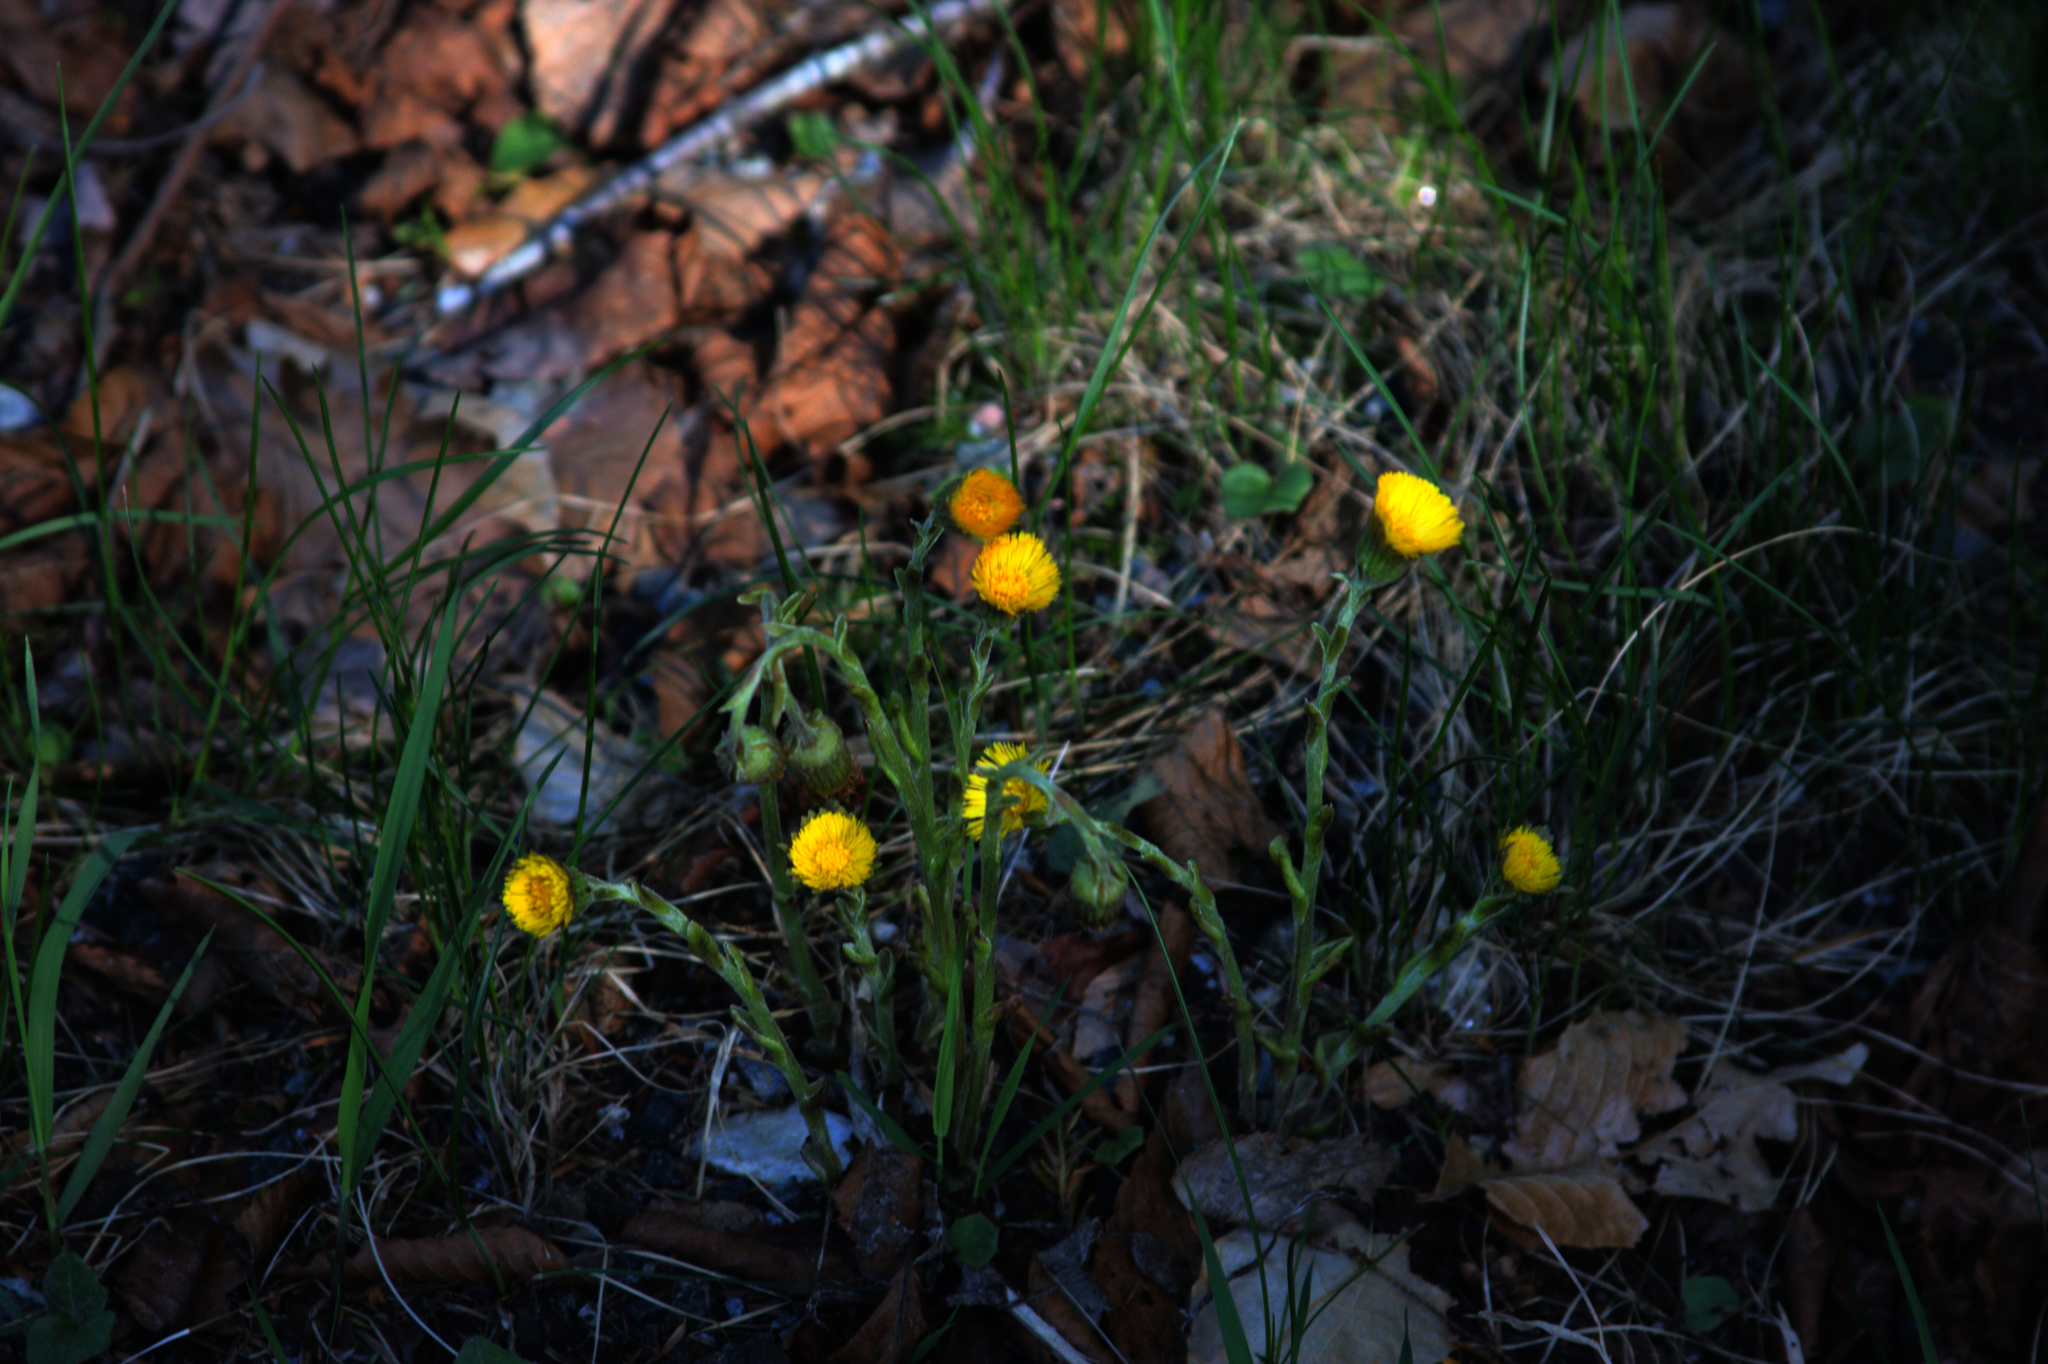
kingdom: Plantae
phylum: Tracheophyta
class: Magnoliopsida
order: Asterales
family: Asteraceae
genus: Tussilago
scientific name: Tussilago farfara
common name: Coltsfoot
